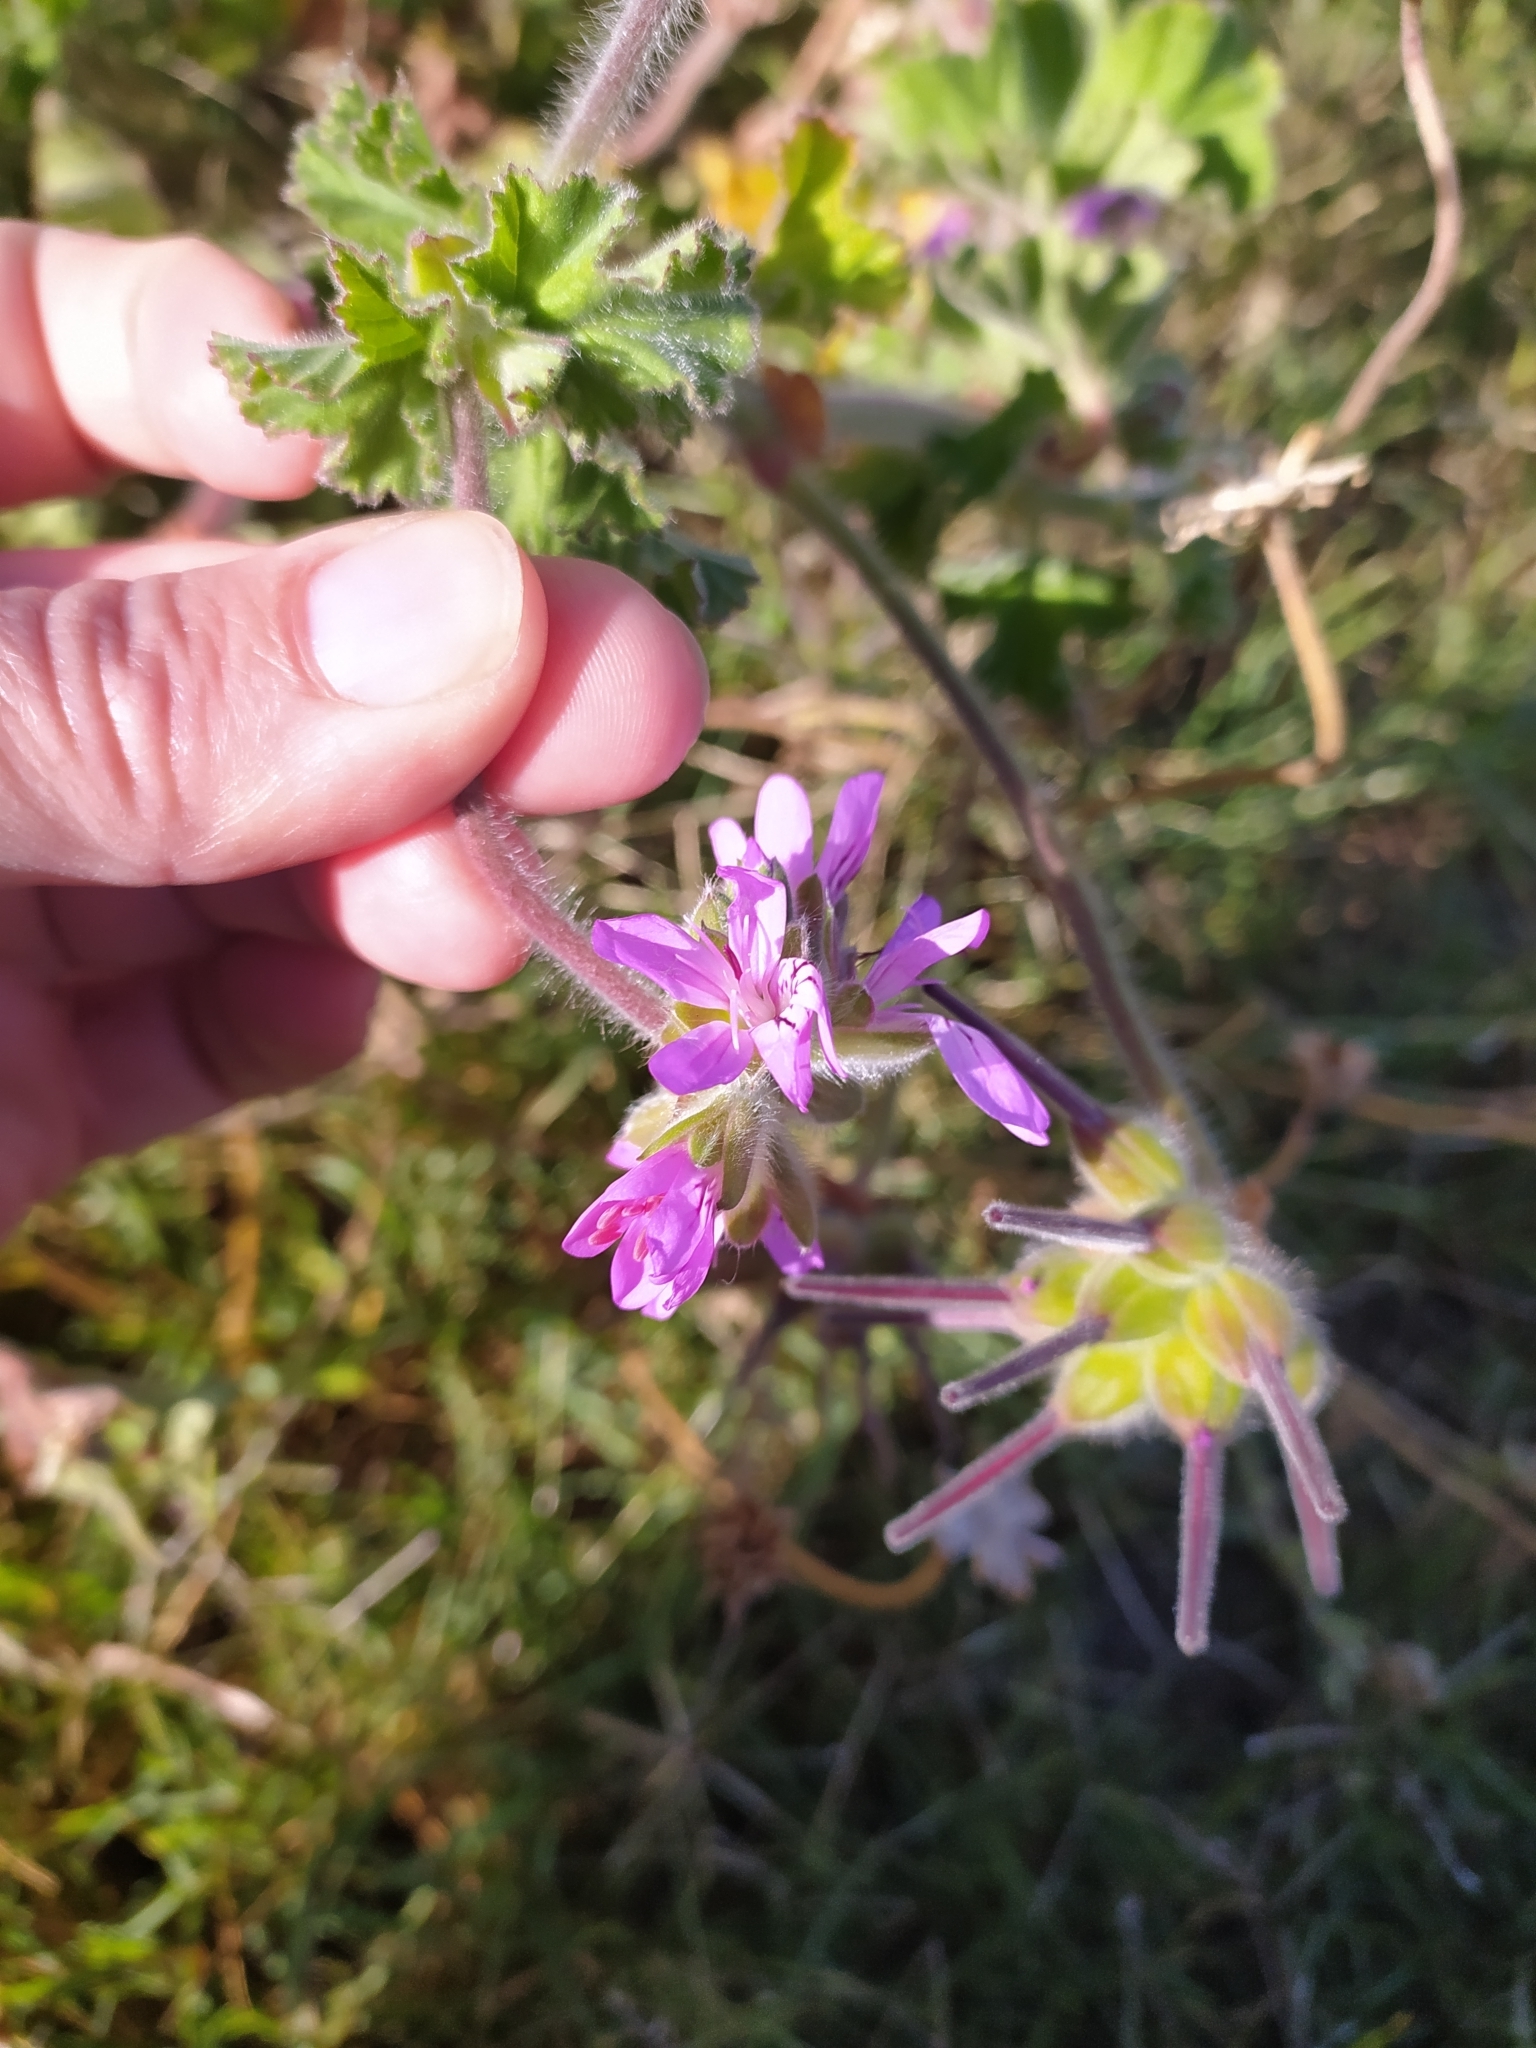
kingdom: Plantae
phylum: Tracheophyta
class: Magnoliopsida
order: Geraniales
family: Geraniaceae
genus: Pelargonium
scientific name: Pelargonium capitatum
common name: Rose scented geranium
